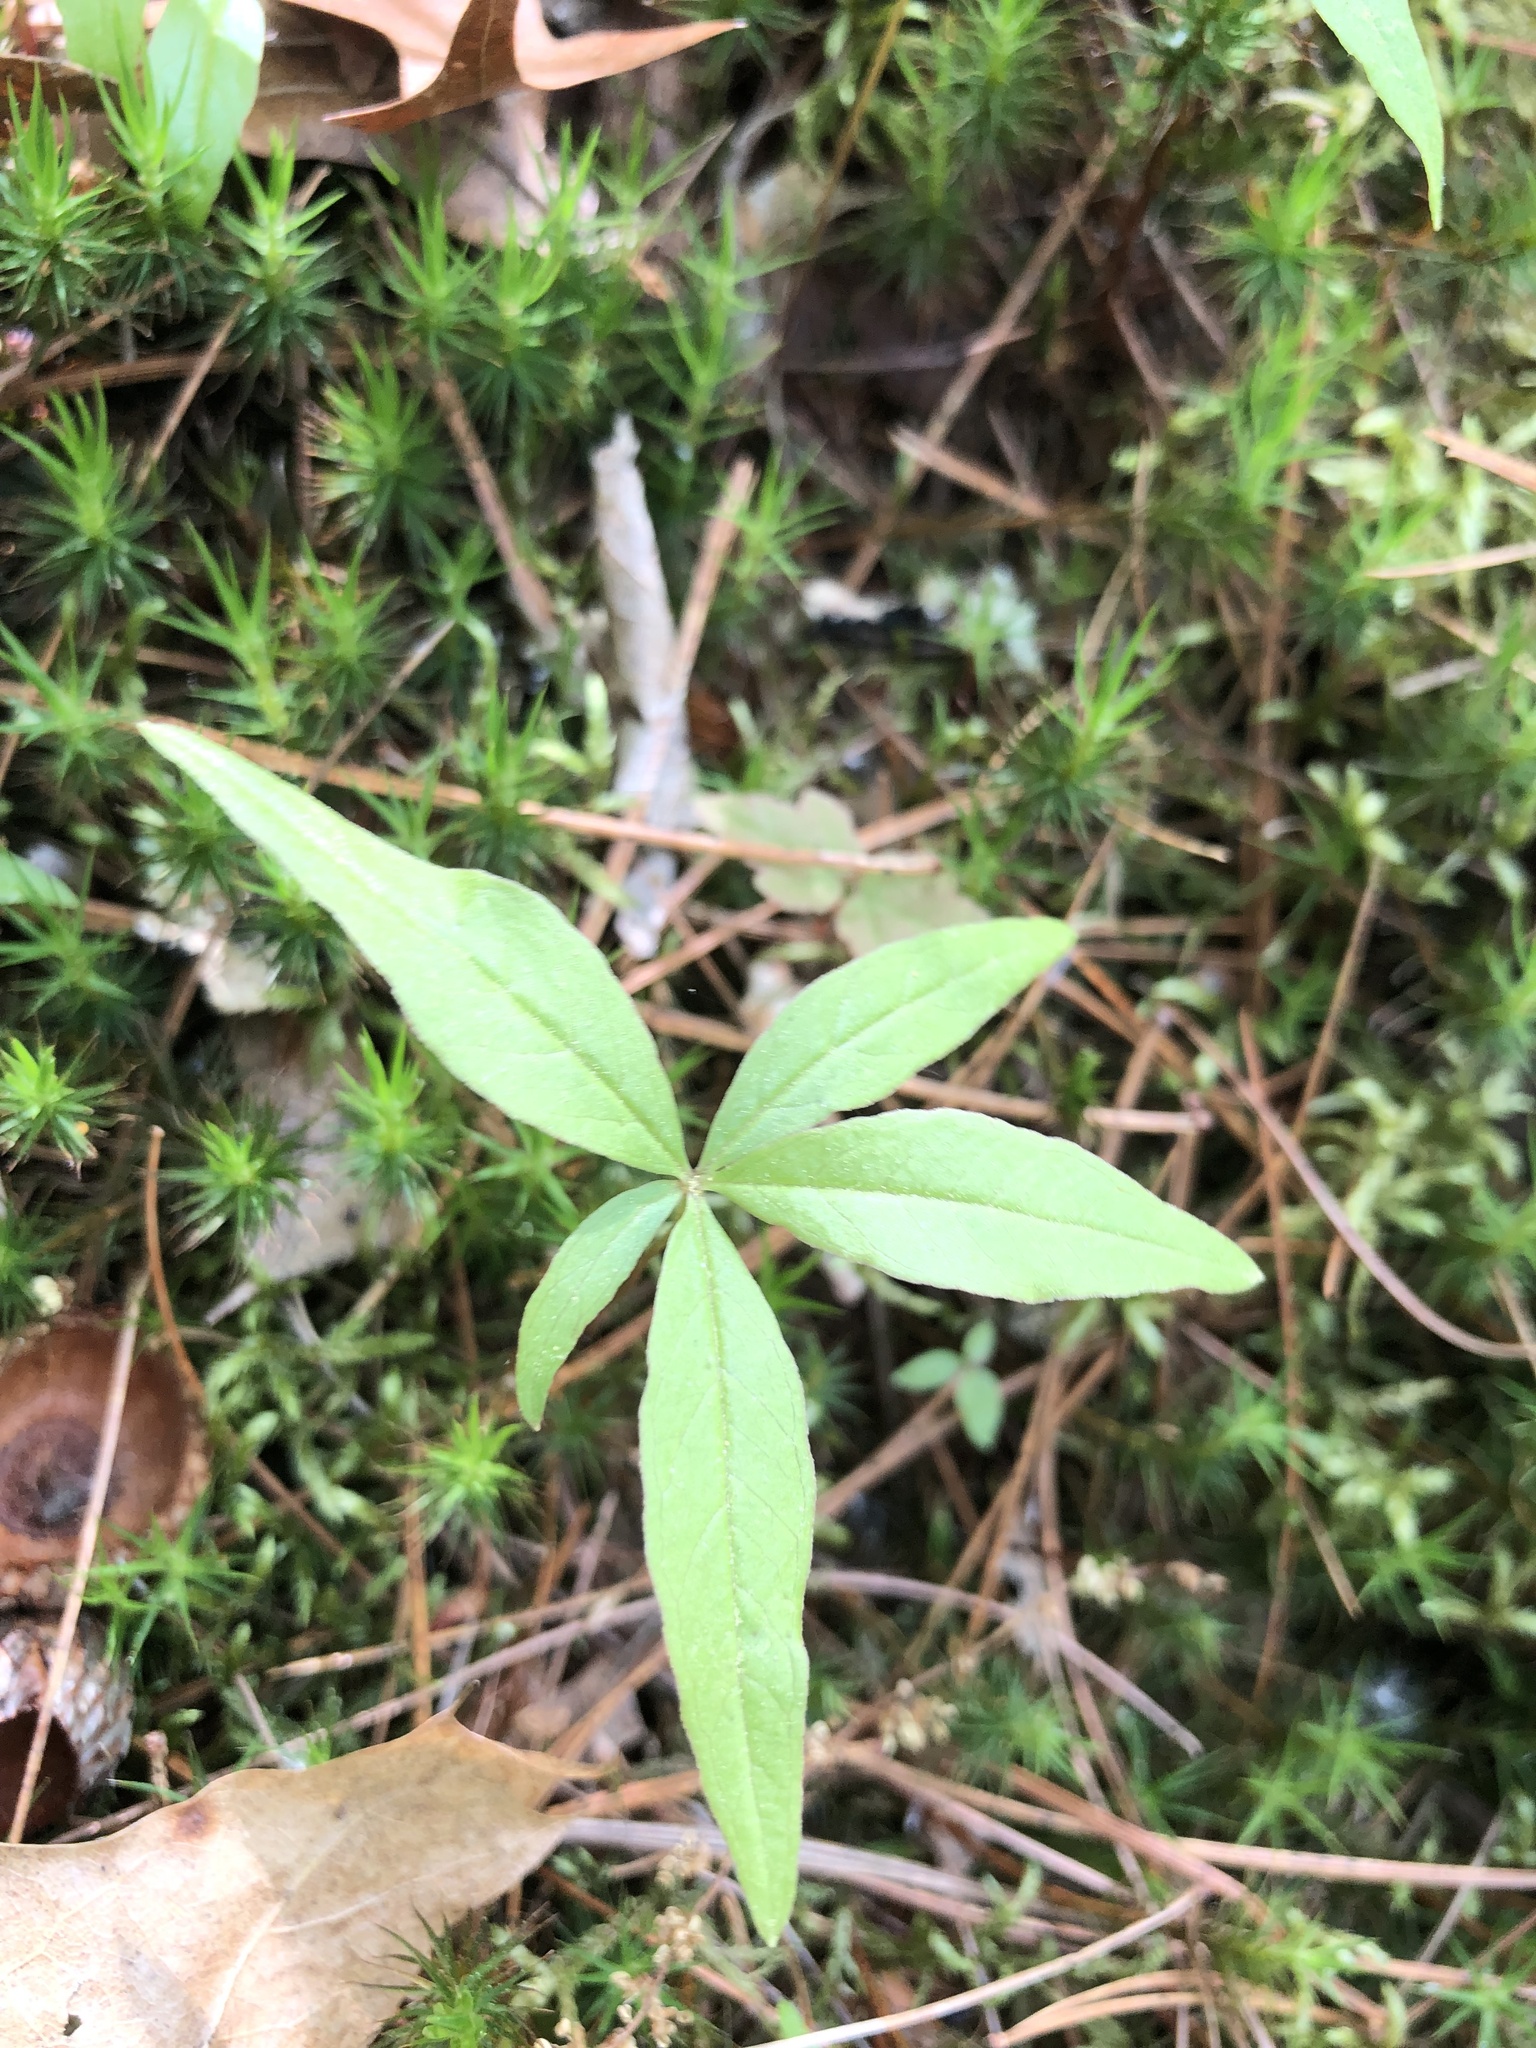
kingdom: Plantae
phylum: Tracheophyta
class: Magnoliopsida
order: Ericales
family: Primulaceae
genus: Lysimachia
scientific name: Lysimachia borealis
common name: American starflower
